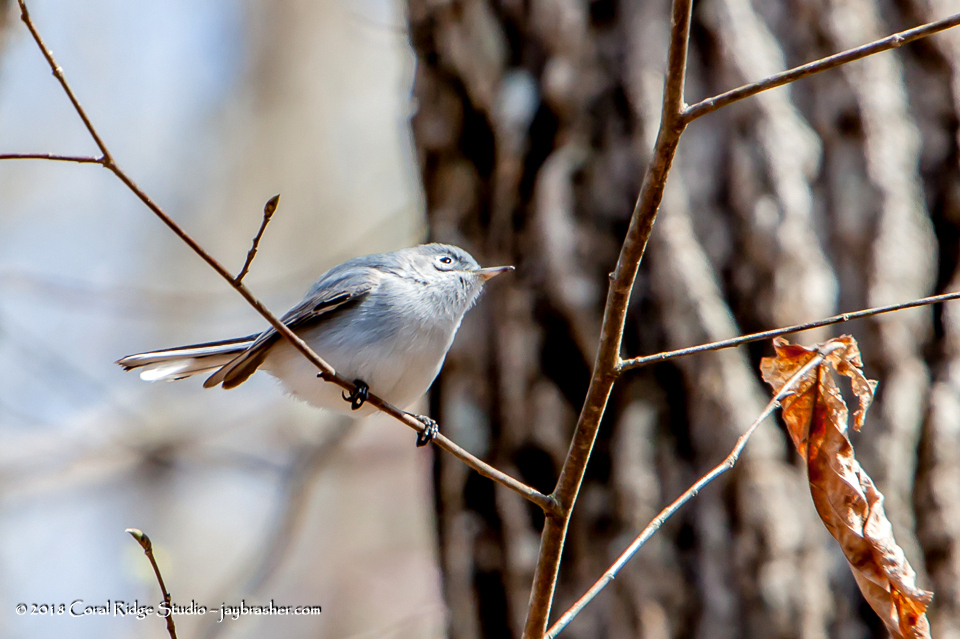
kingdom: Animalia
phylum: Chordata
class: Aves
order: Passeriformes
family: Polioptilidae
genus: Polioptila
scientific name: Polioptila caerulea
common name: Blue-gray gnatcatcher
